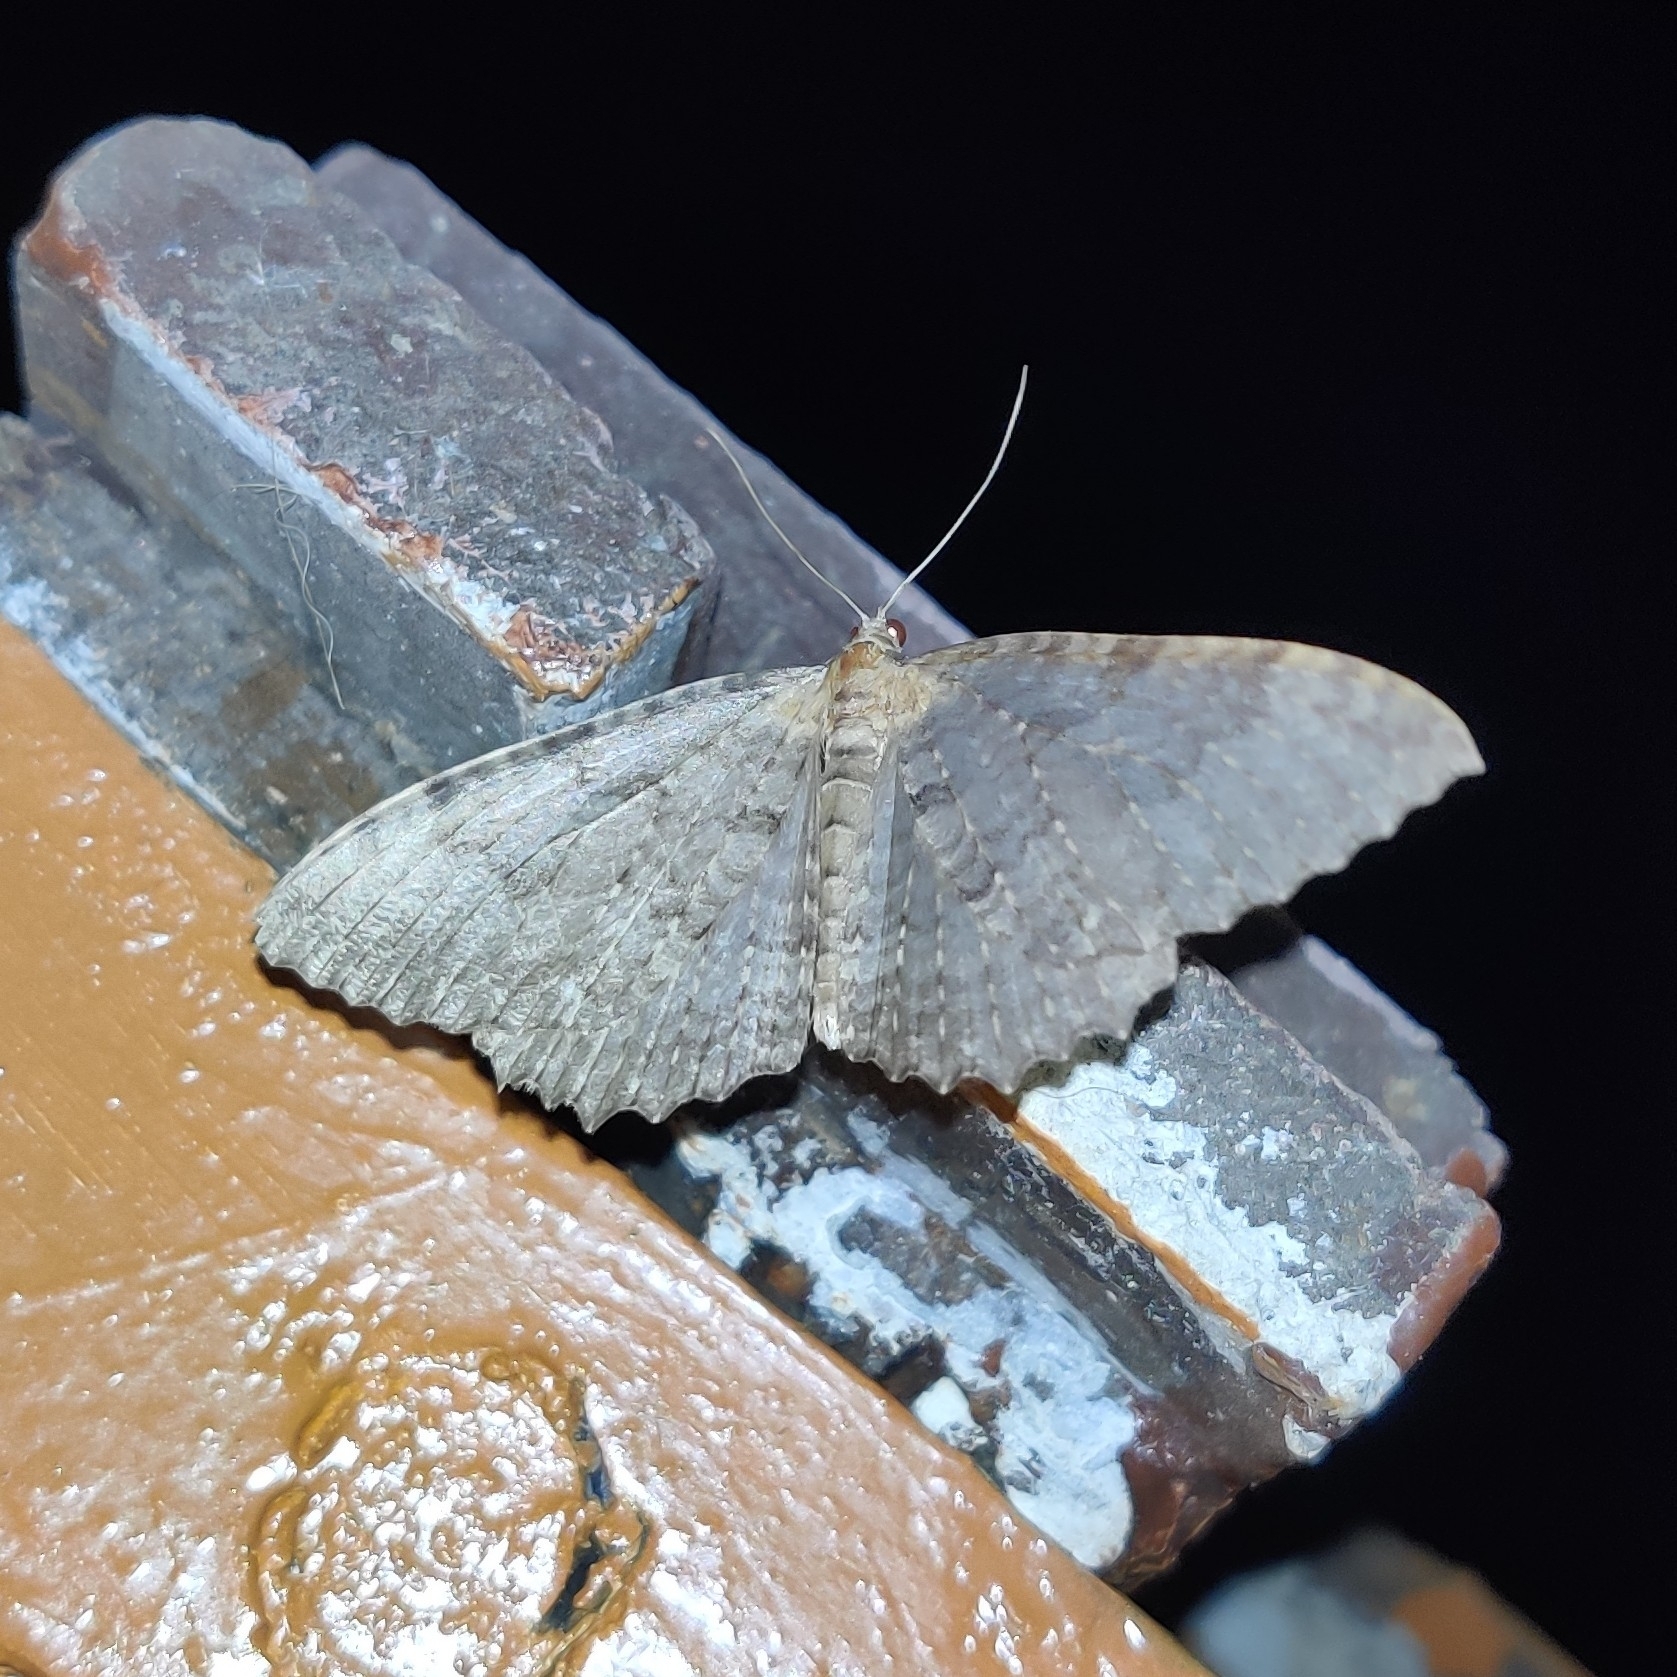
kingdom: Animalia
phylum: Arthropoda
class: Insecta
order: Lepidoptera
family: Geometridae
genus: Triphosa
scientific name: Triphosa venimaculata
